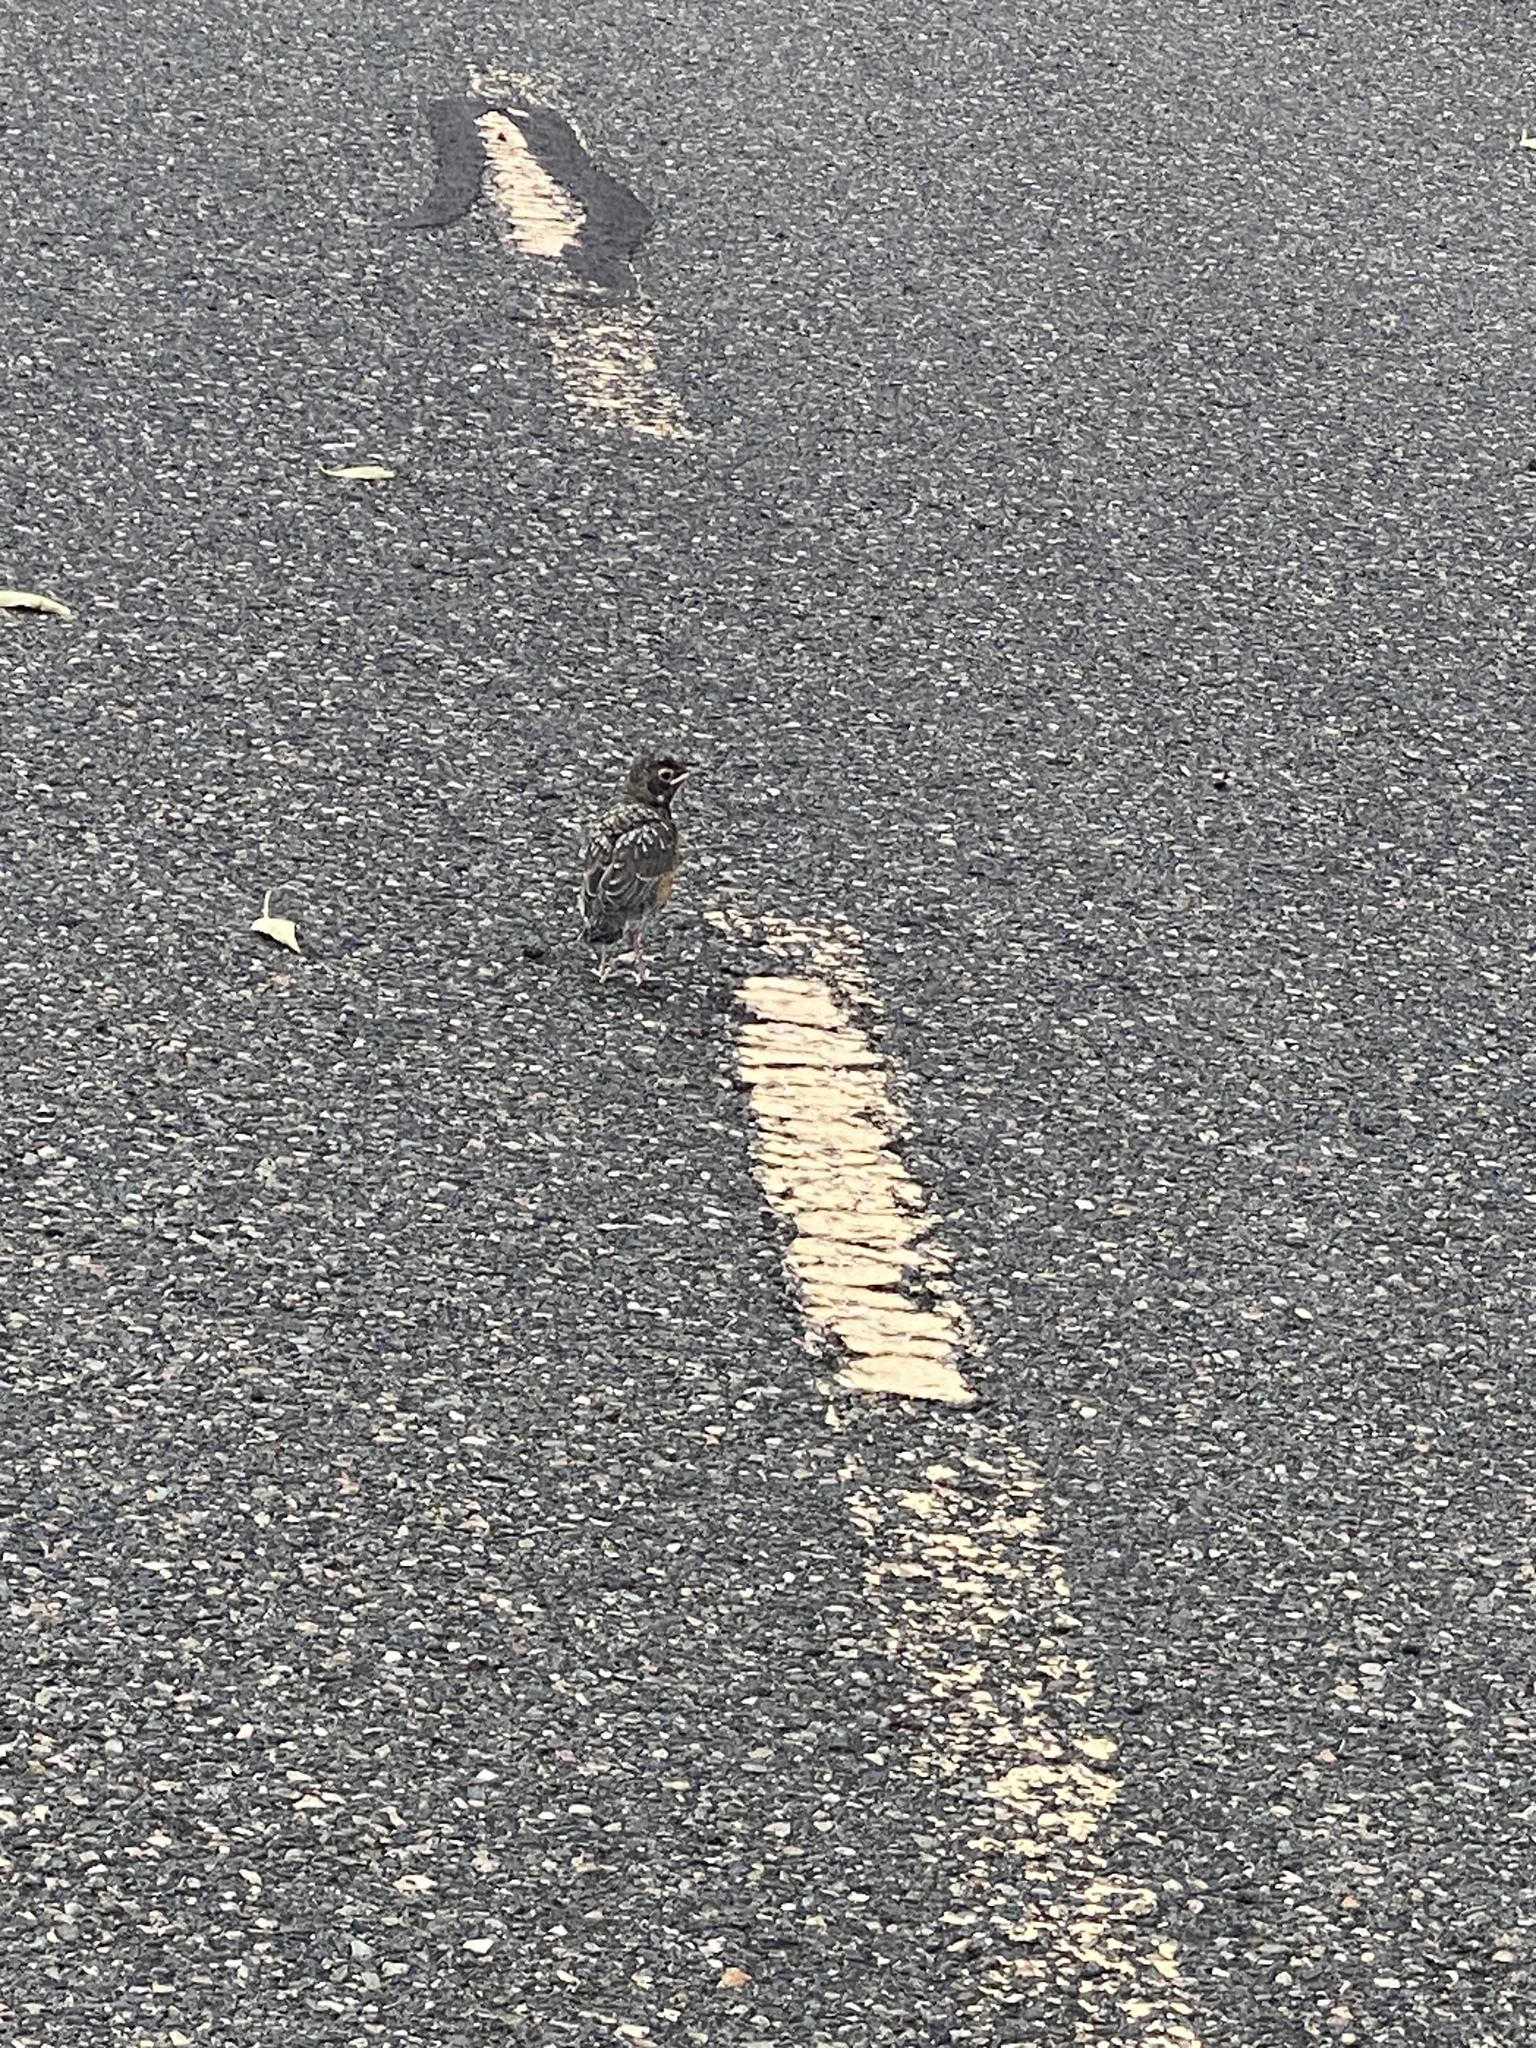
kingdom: Animalia
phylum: Chordata
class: Aves
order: Passeriformes
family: Turdidae
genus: Turdus
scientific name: Turdus migratorius
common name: American robin
